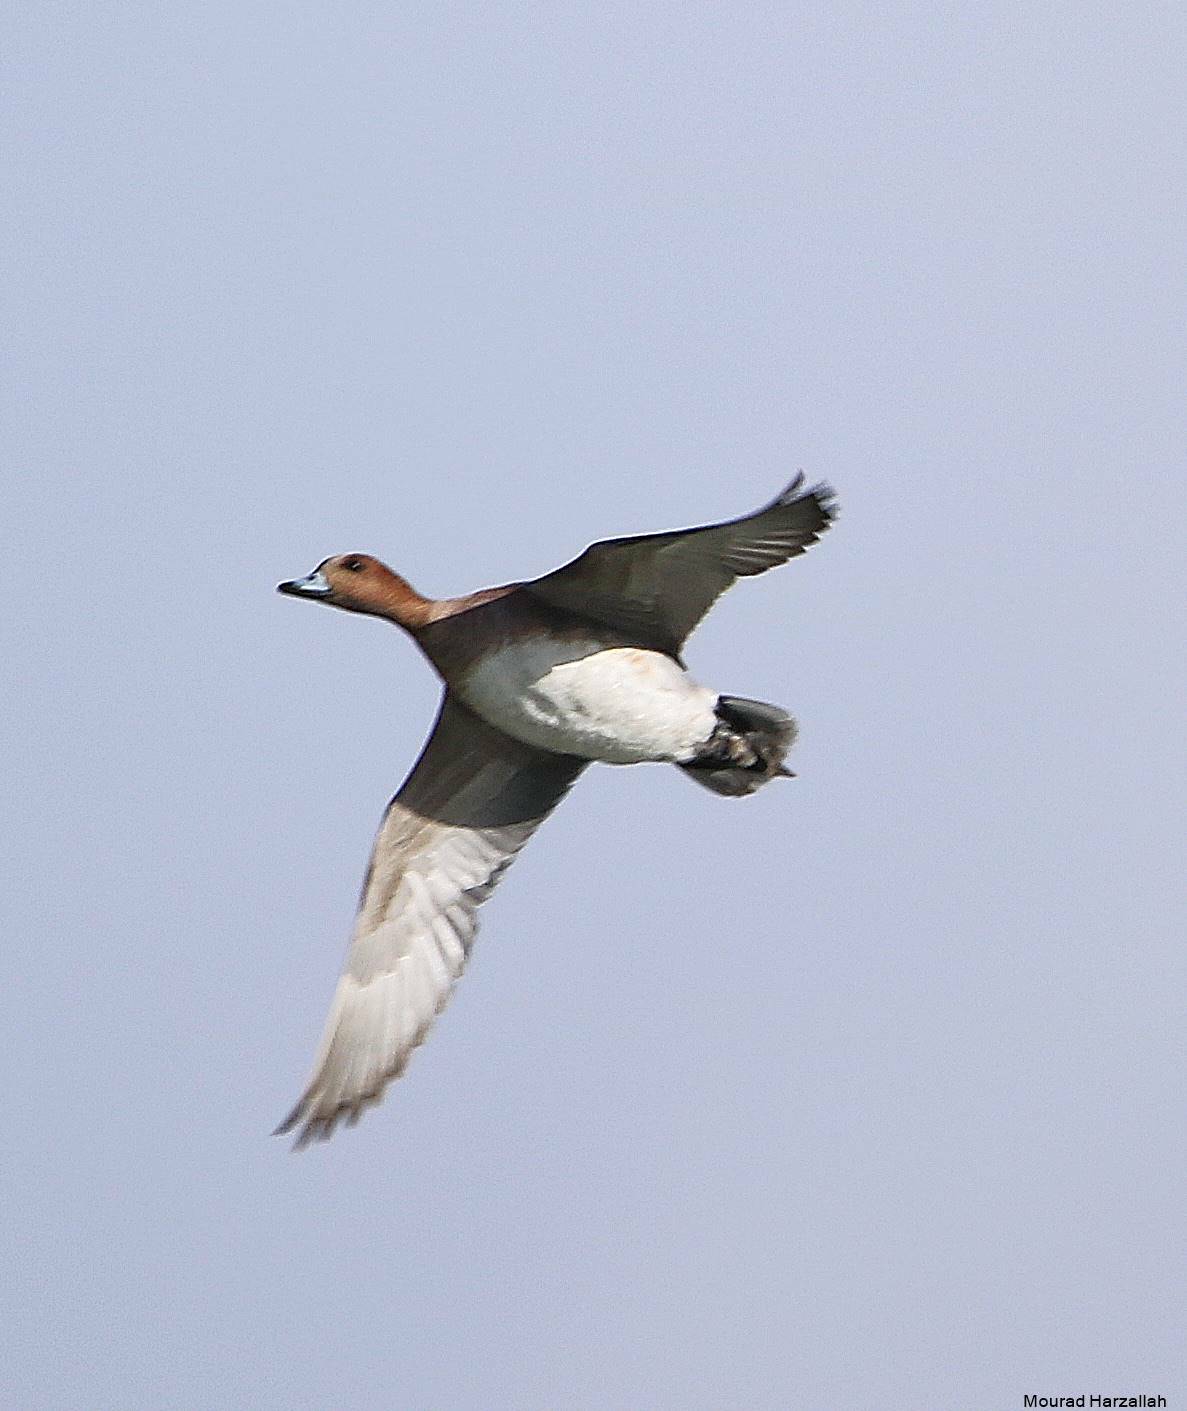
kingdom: Animalia
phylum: Chordata
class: Aves
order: Anseriformes
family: Anatidae
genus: Mareca
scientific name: Mareca penelope
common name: Eurasian wigeon
